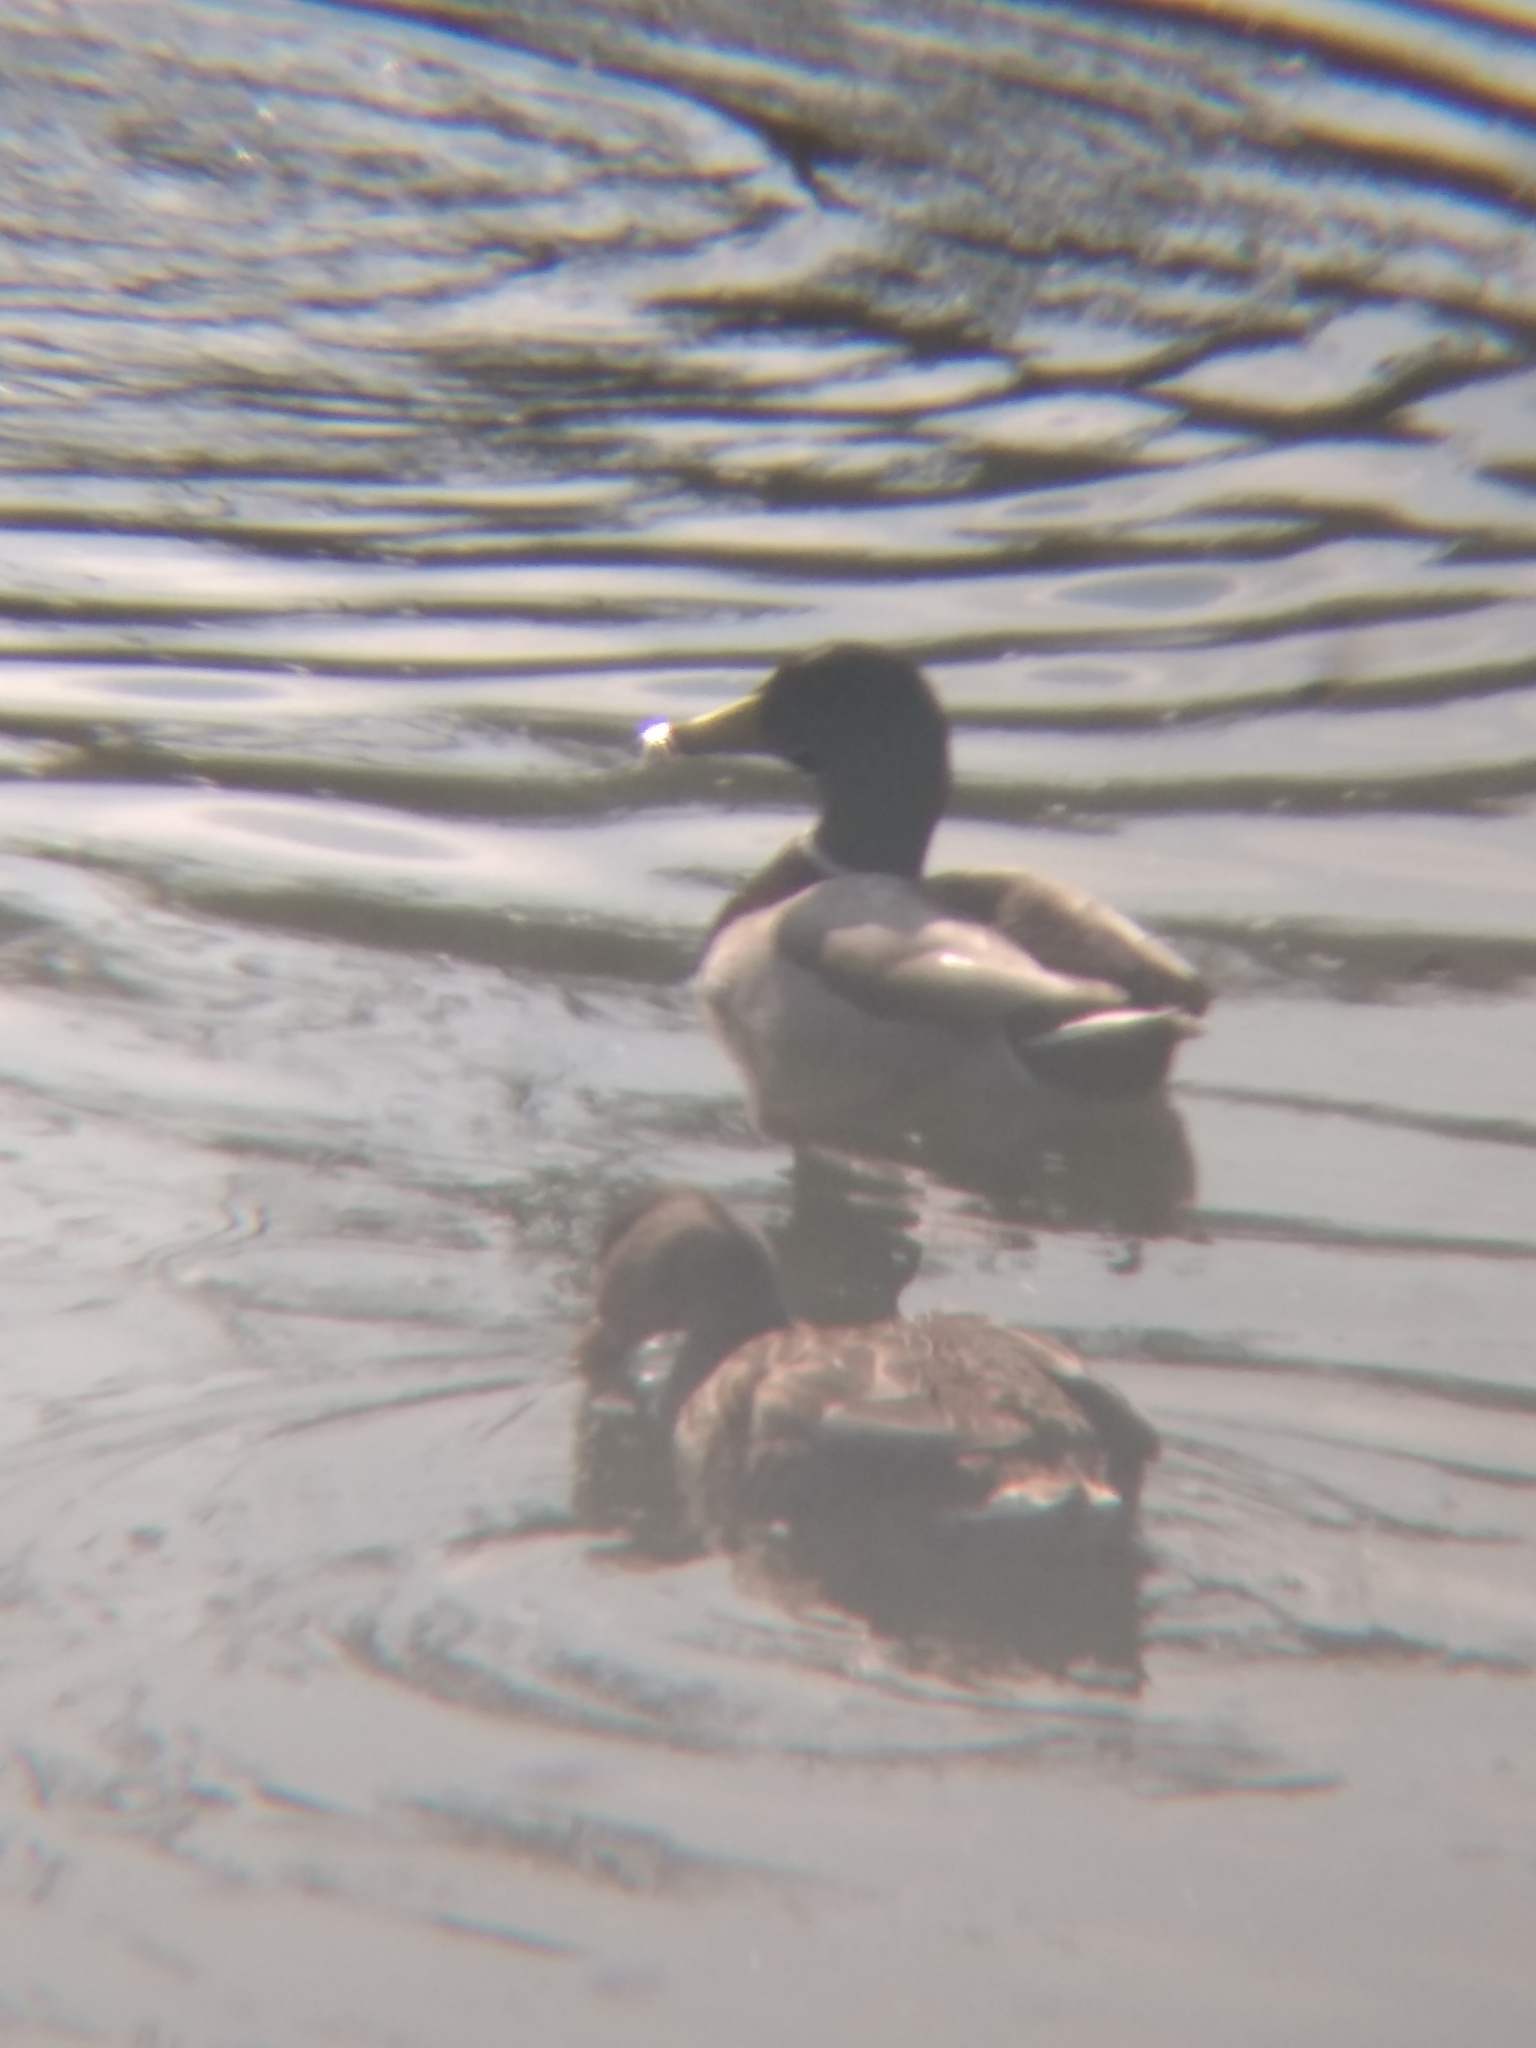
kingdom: Animalia
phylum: Chordata
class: Aves
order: Anseriformes
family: Anatidae
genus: Anas
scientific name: Anas platyrhynchos
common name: Mallard
